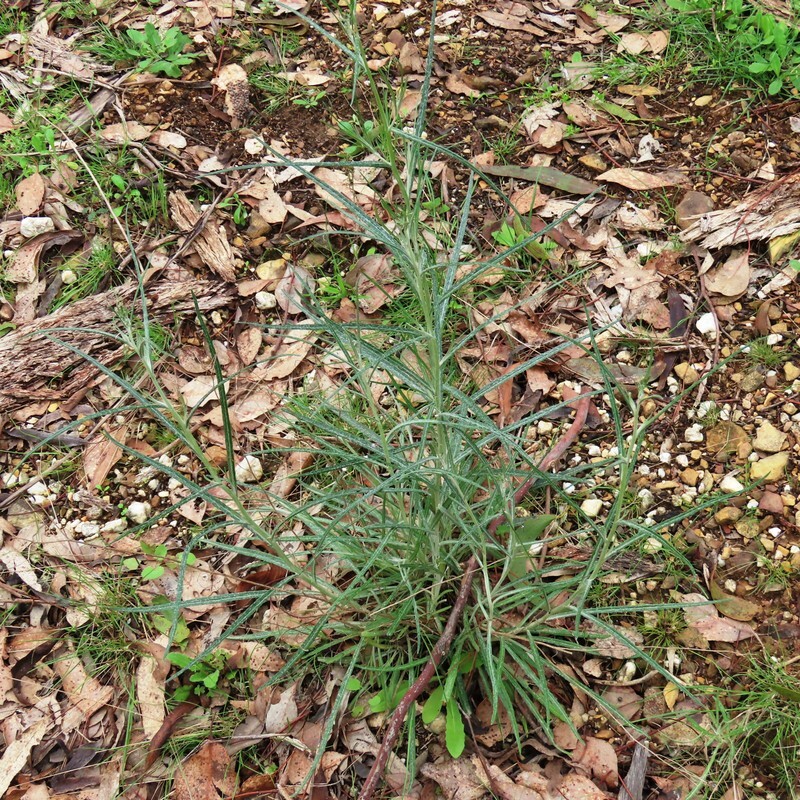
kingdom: Plantae
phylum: Tracheophyta
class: Magnoliopsida
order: Asterales
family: Asteraceae
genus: Senecio
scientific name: Senecio quadridentatus
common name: Cotton fireweed
